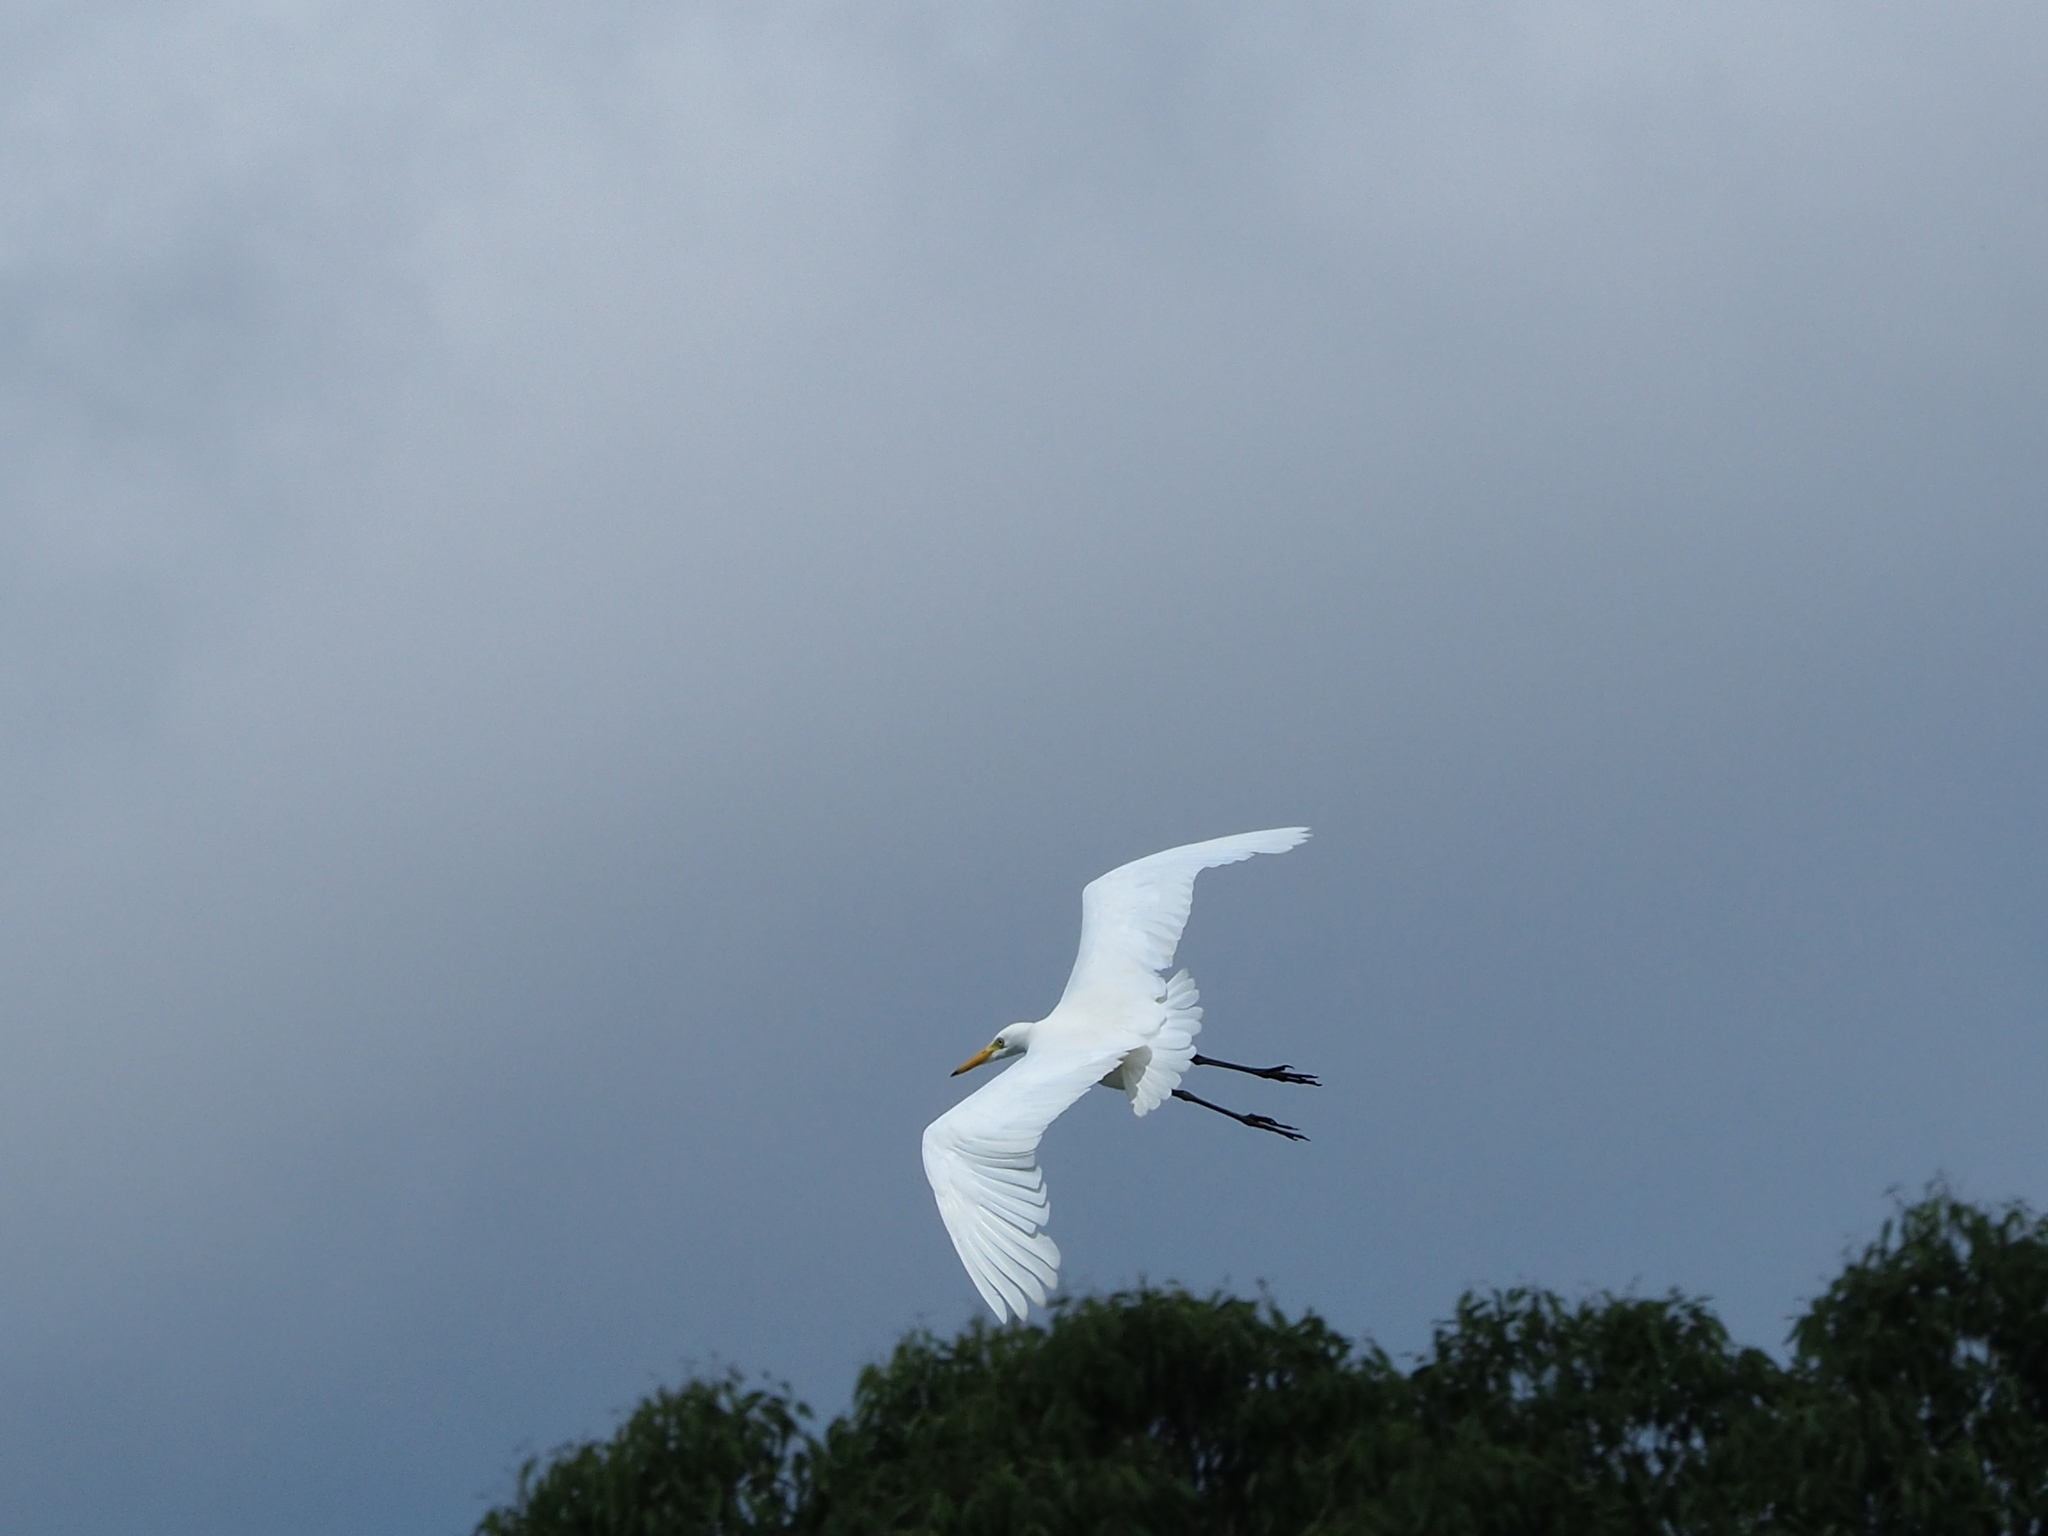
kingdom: Animalia
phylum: Chordata
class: Aves
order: Pelecaniformes
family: Ardeidae
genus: Egretta
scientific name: Egretta intermedia
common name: Intermediate egret
